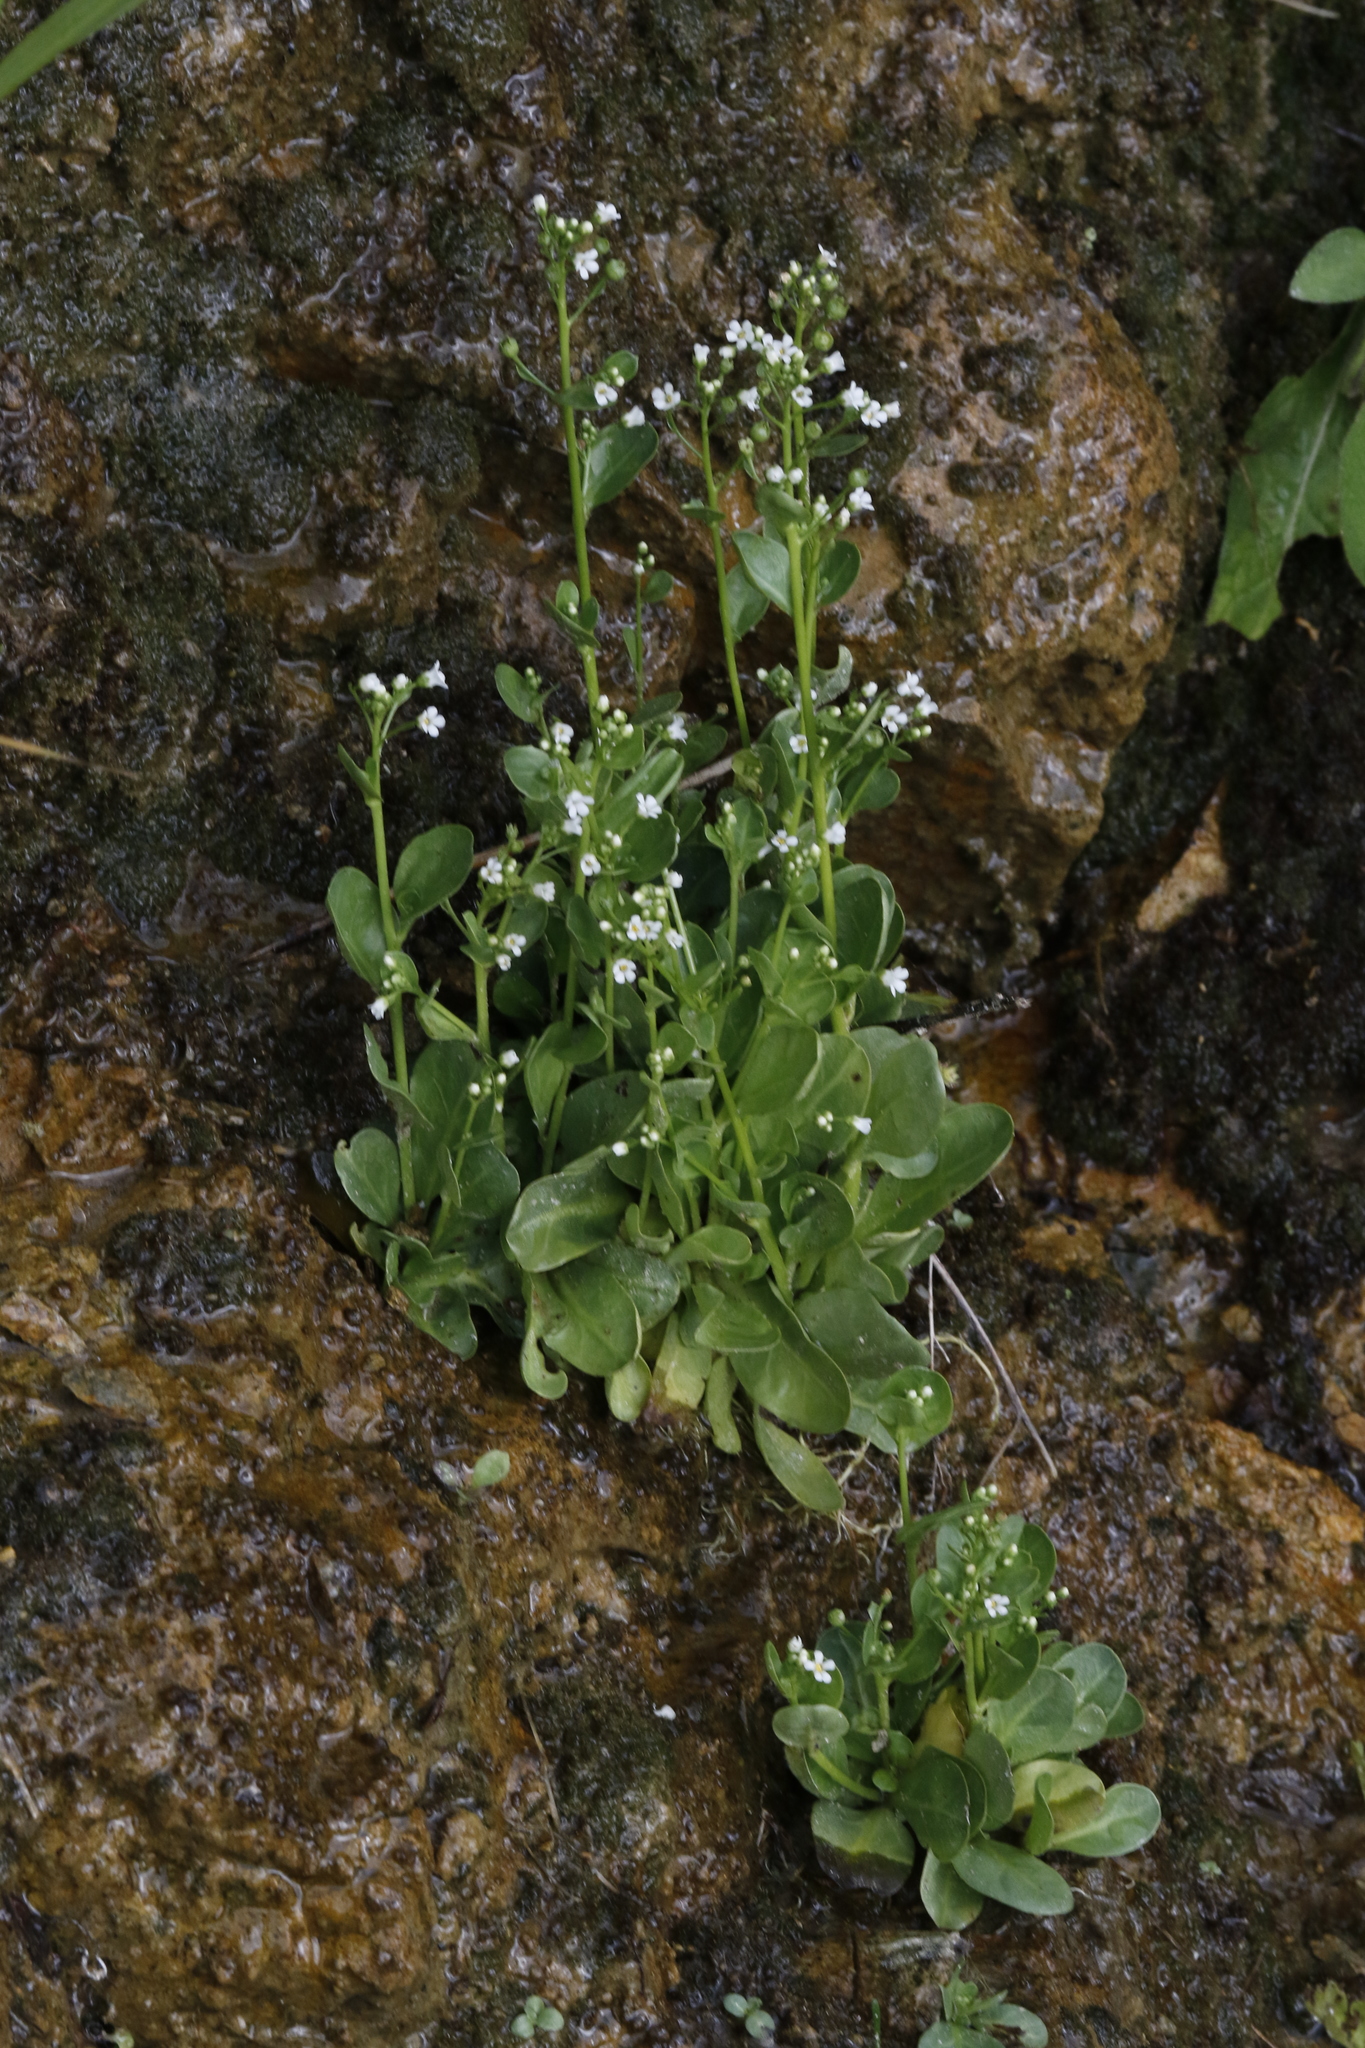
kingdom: Plantae
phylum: Tracheophyta
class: Magnoliopsida
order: Ericales
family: Primulaceae
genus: Samolus
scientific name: Samolus valerandi
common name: Brookweed
